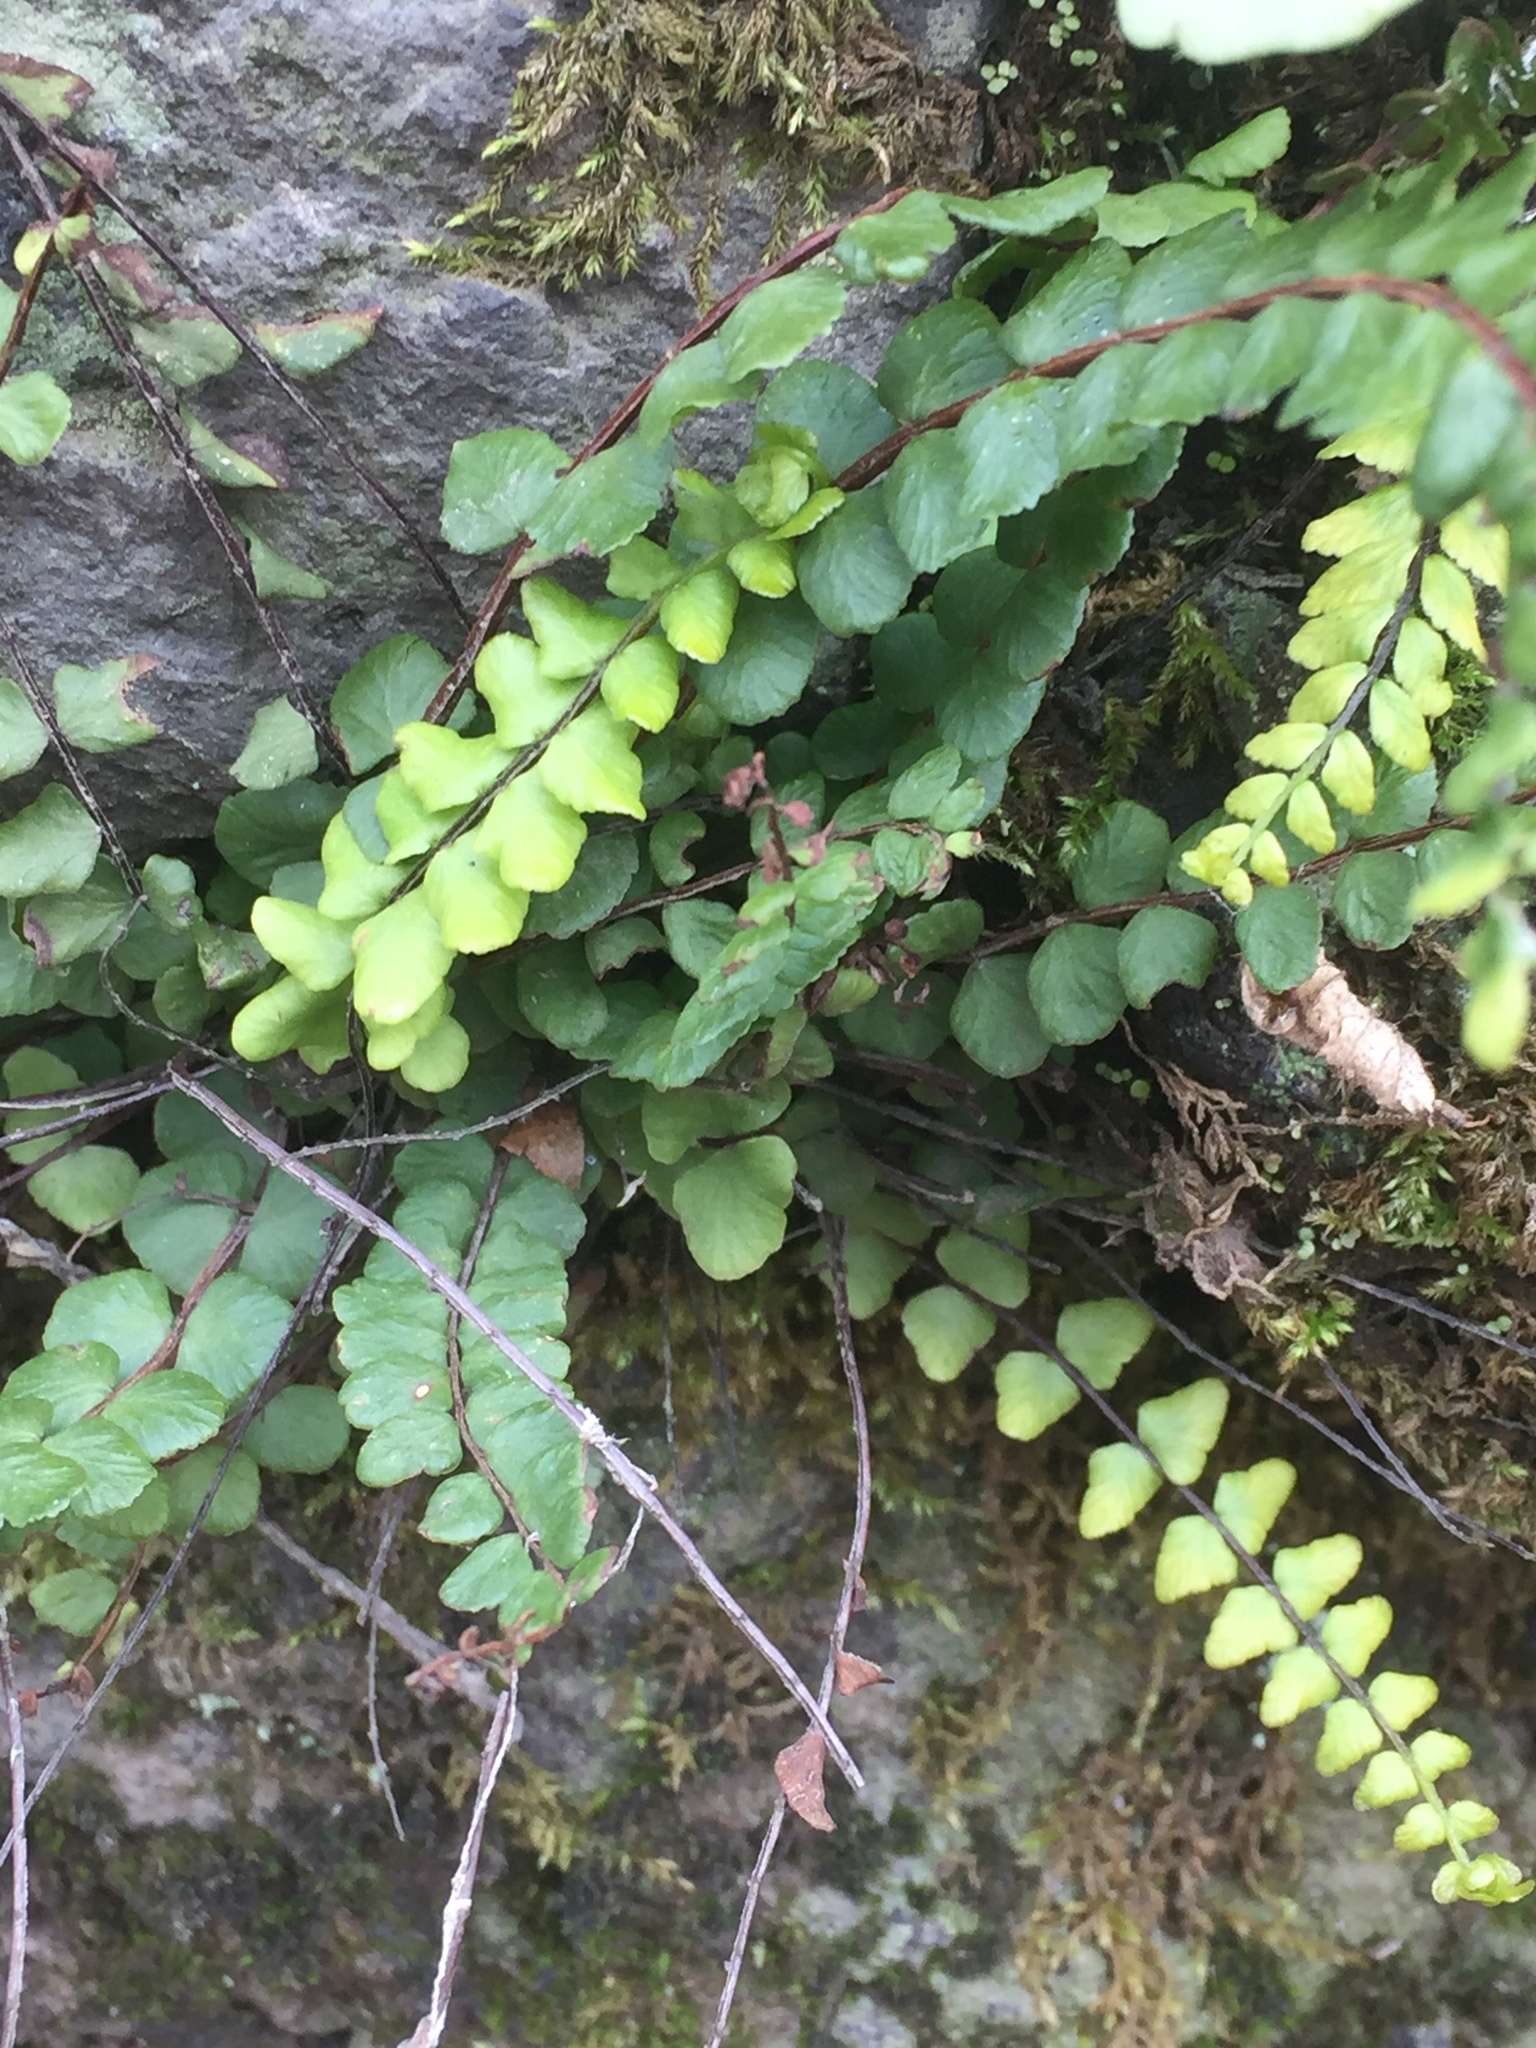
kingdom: Plantae
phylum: Tracheophyta
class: Polypodiopsida
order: Polypodiales
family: Aspleniaceae
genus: Asplenium
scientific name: Asplenium trichomanes
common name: Maidenhair spleenwort
